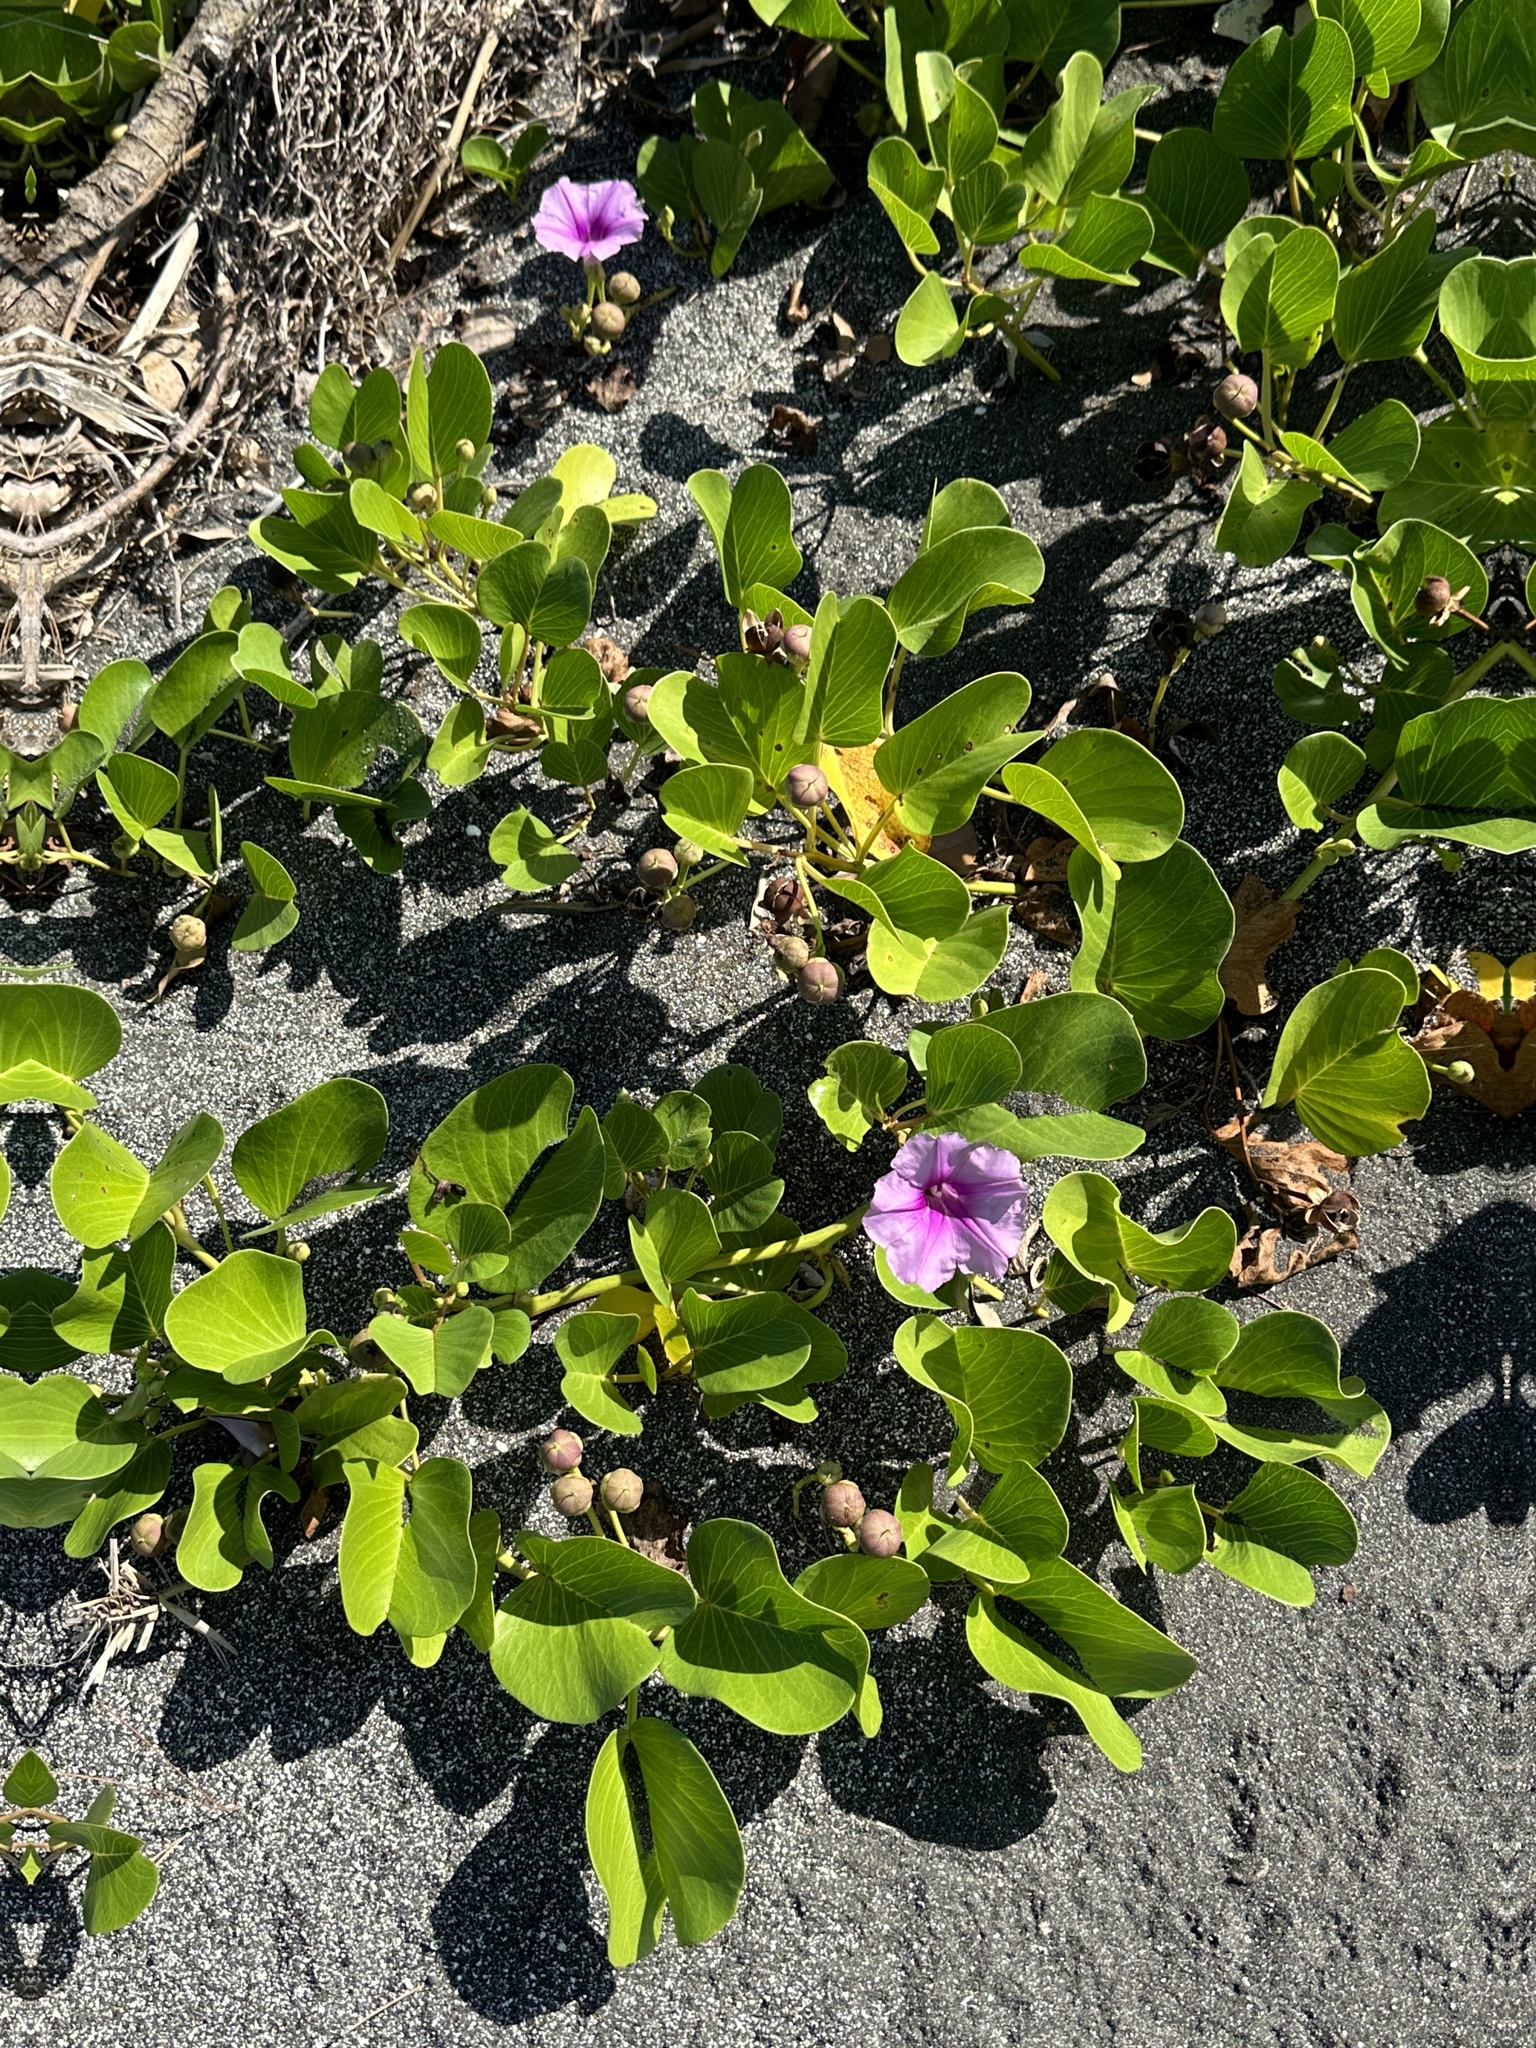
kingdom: Plantae
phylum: Tracheophyta
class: Magnoliopsida
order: Solanales
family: Convolvulaceae
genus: Ipomoea
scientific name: Ipomoea pes-caprae
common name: Beach morning glory
